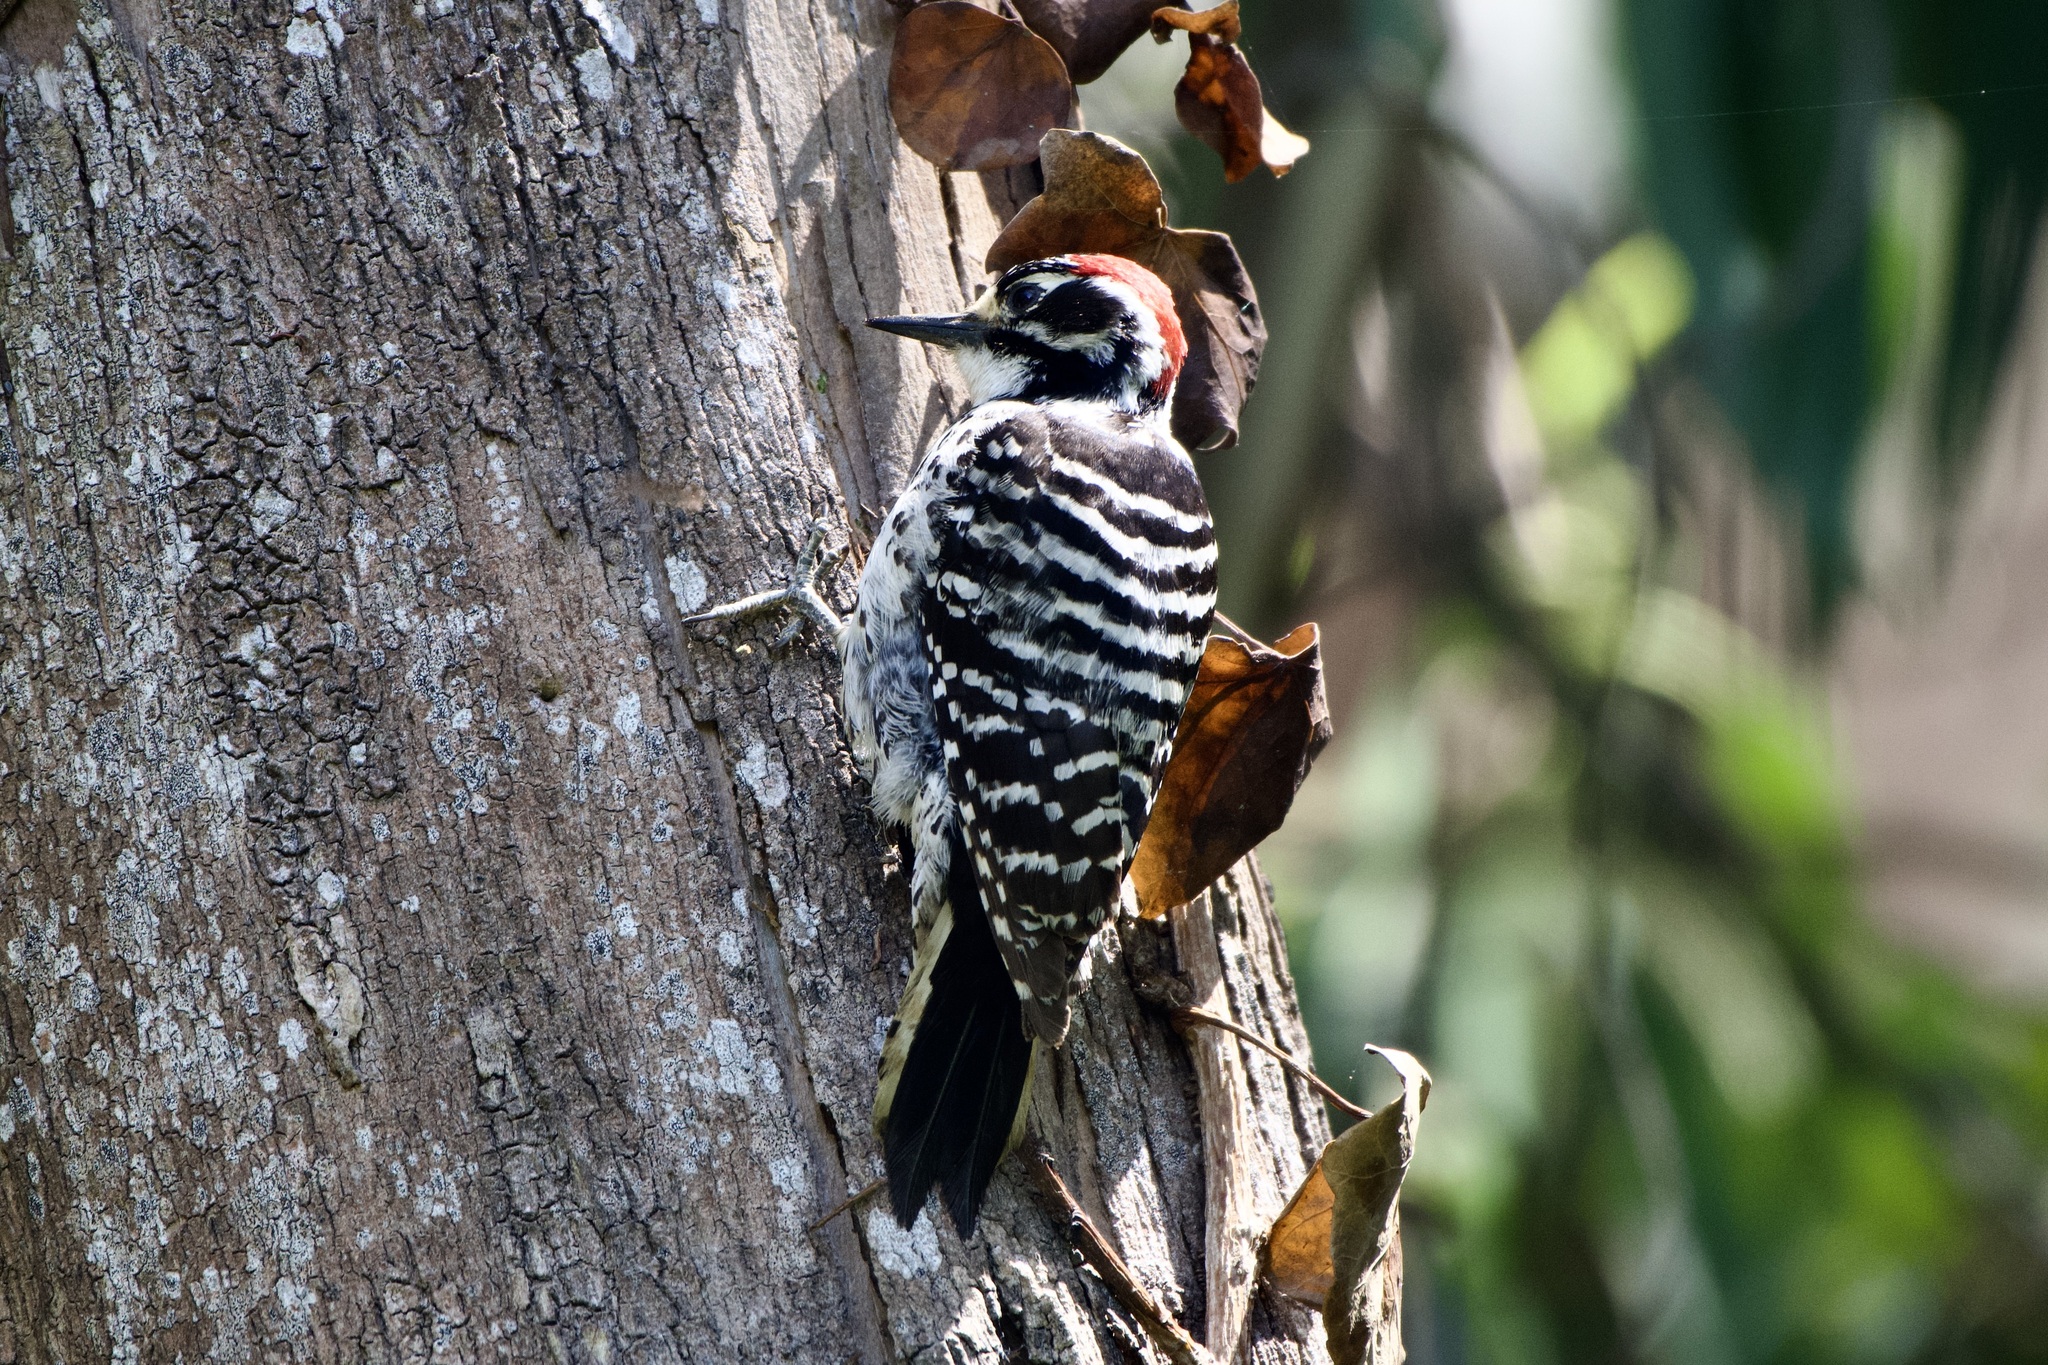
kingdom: Animalia
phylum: Chordata
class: Aves
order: Piciformes
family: Picidae
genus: Dryobates
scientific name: Dryobates nuttallii
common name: Nuttall's woodpecker
